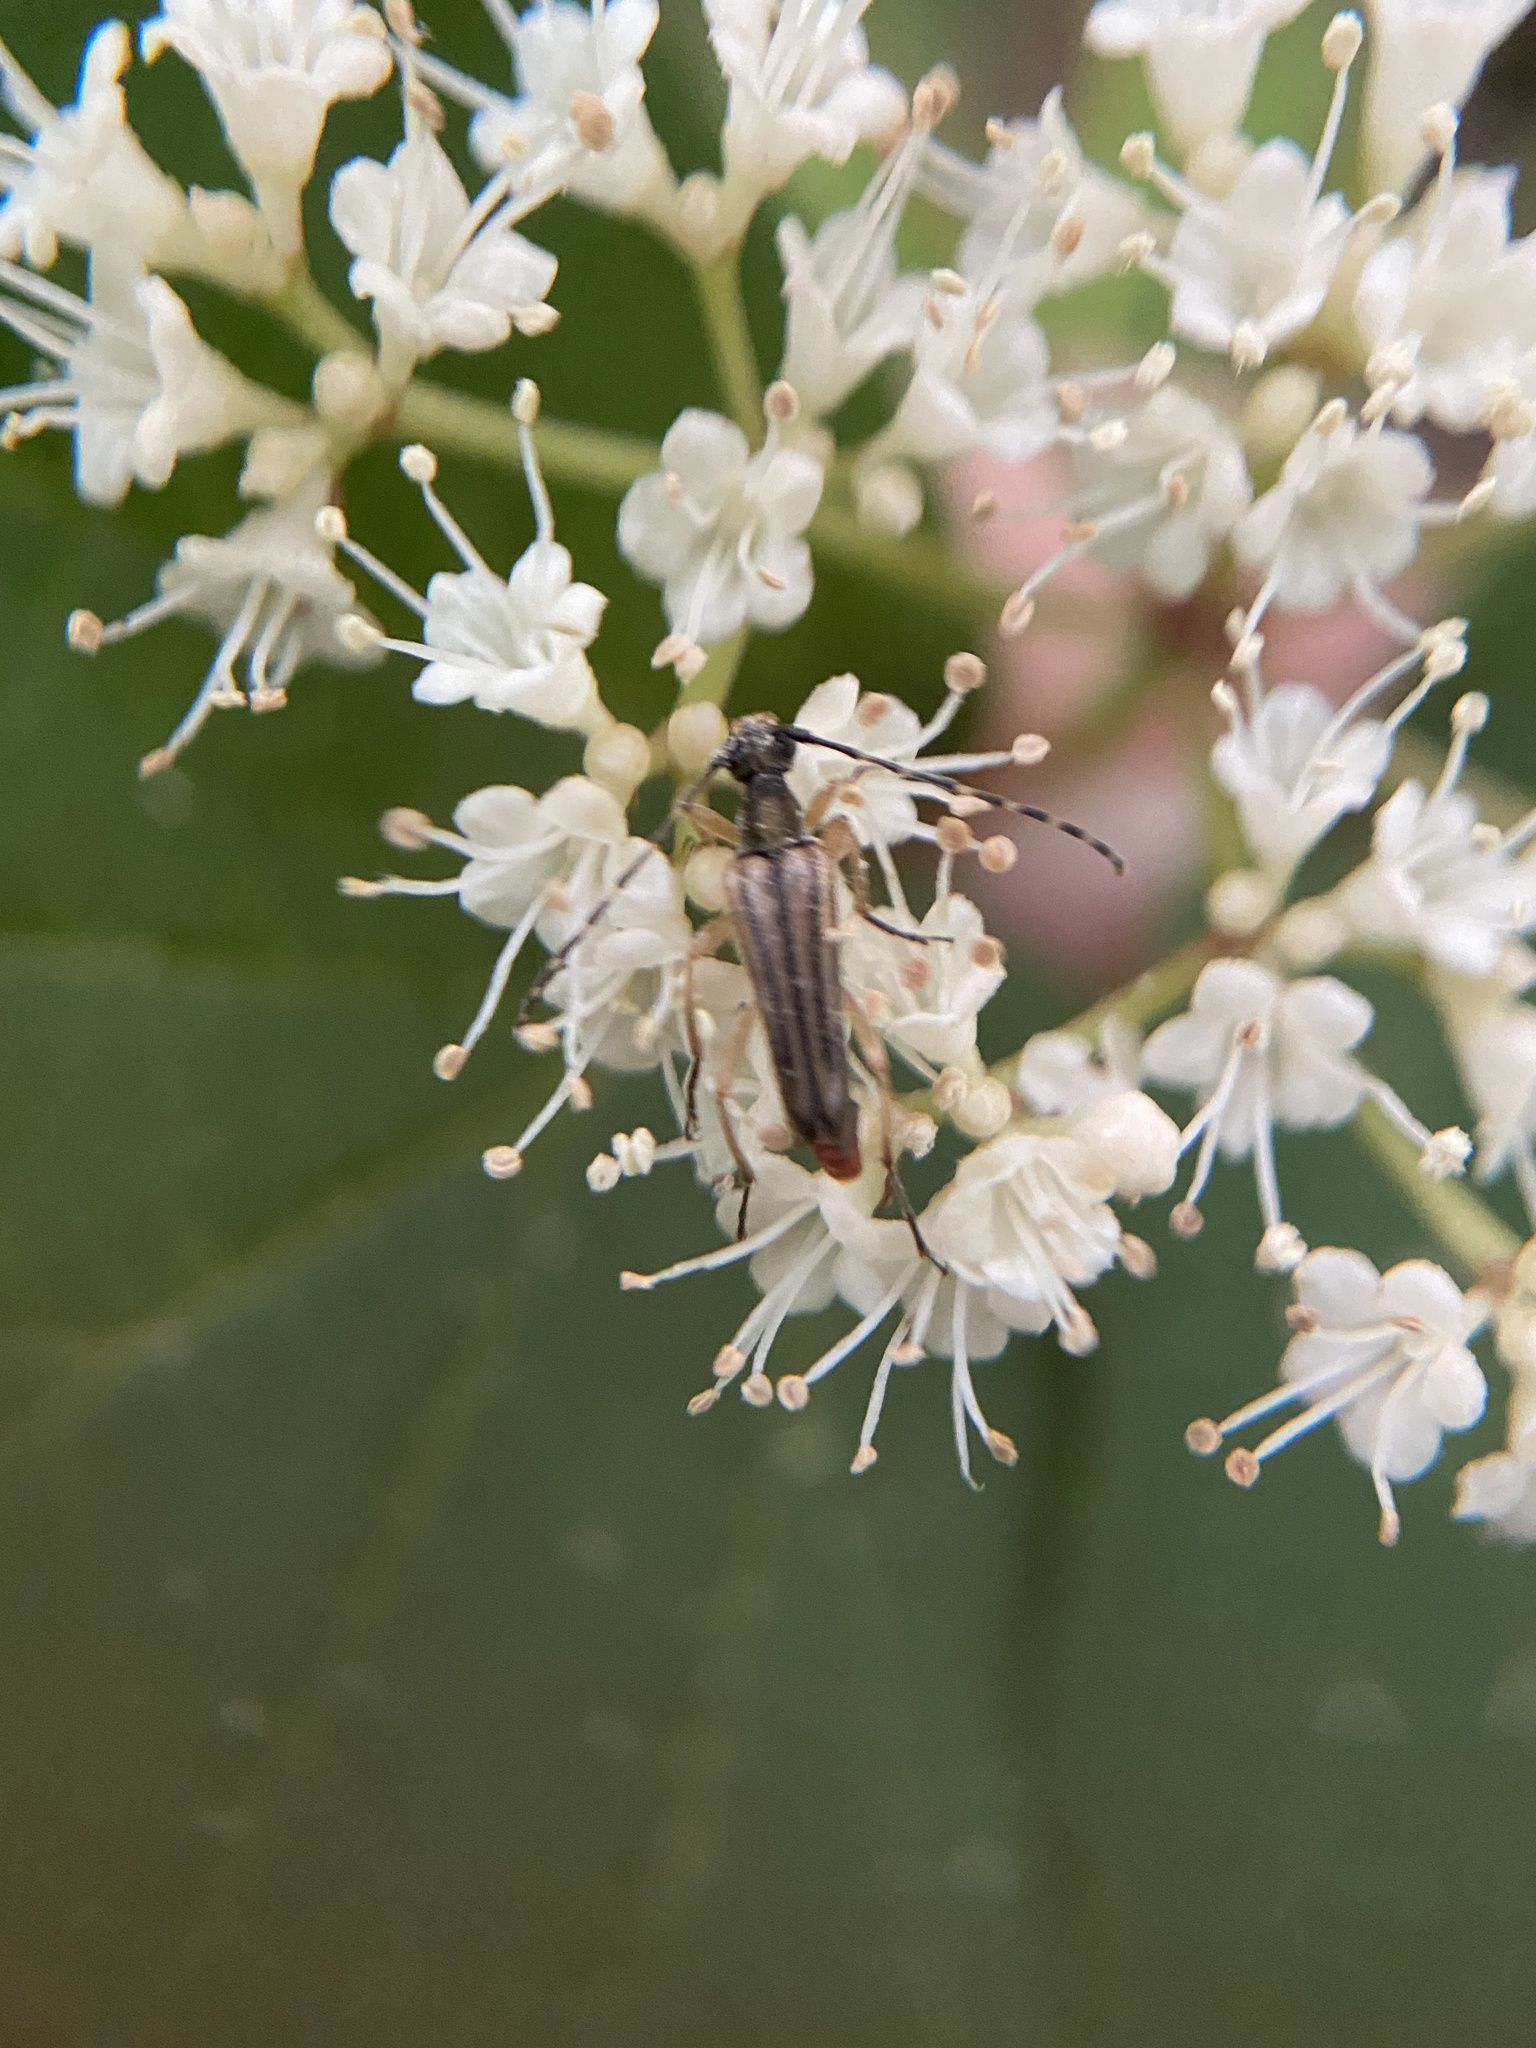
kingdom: Animalia
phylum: Arthropoda
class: Insecta
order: Coleoptera
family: Cerambycidae
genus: Analeptura
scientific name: Analeptura lineola
